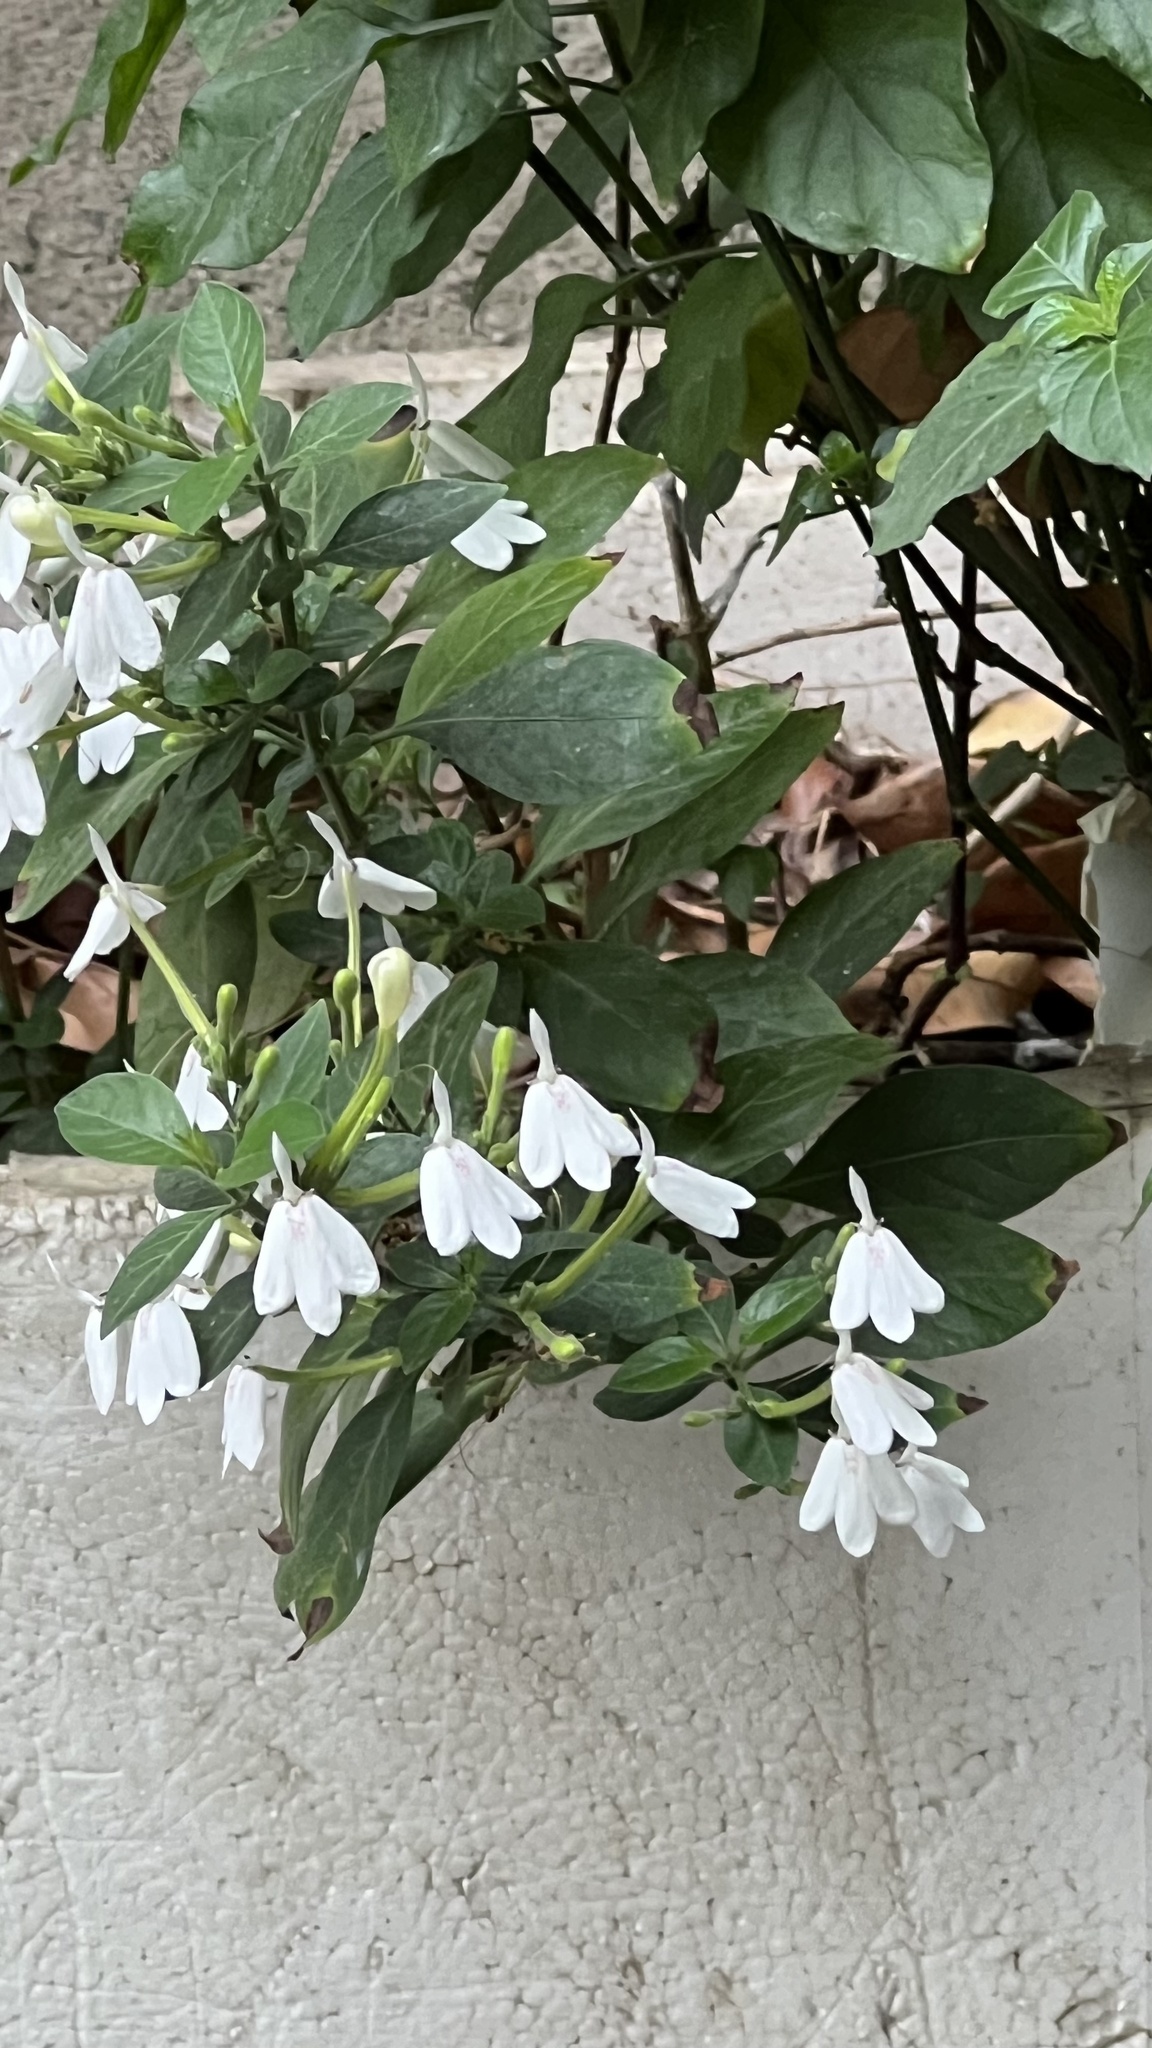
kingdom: Plantae
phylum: Tracheophyta
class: Magnoliopsida
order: Lamiales
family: Acanthaceae
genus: Rhinacanthus
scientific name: Rhinacanthus nasutus
